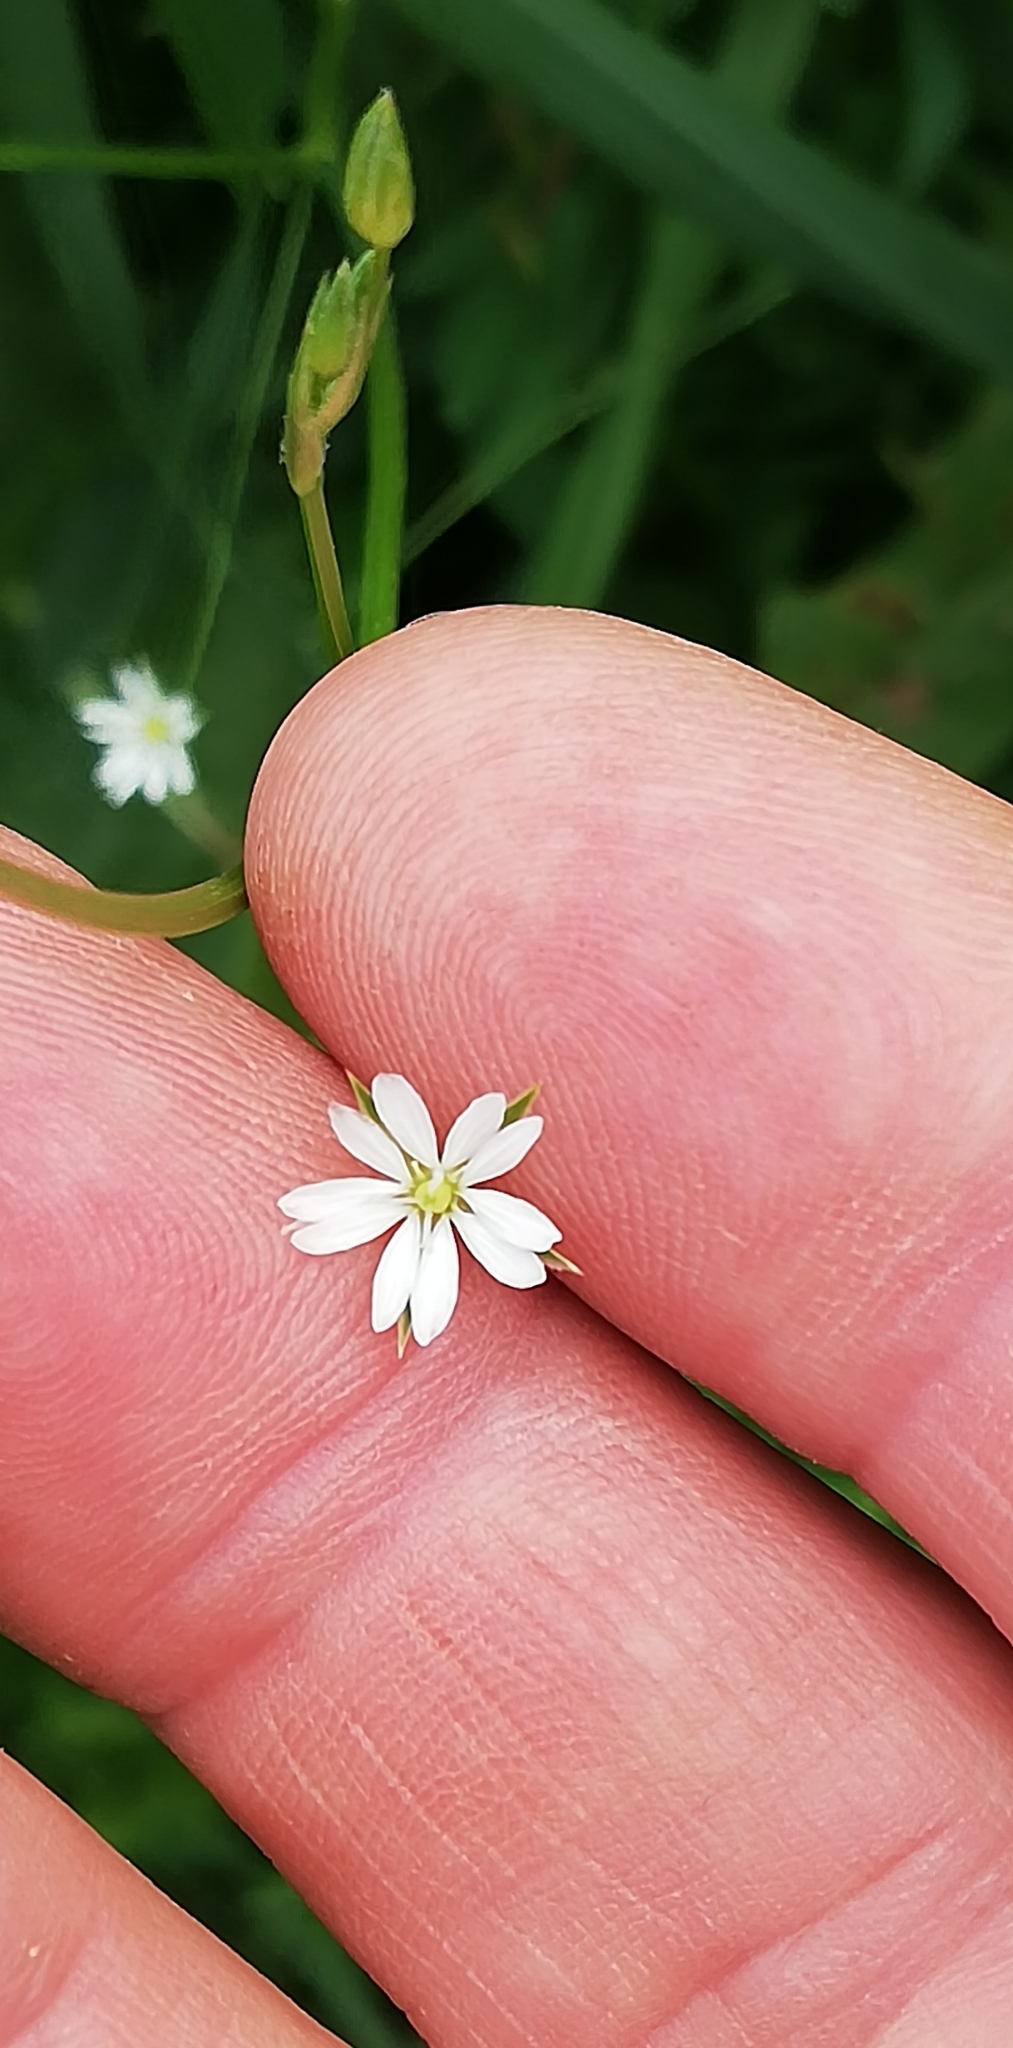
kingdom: Plantae
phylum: Tracheophyta
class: Magnoliopsida
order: Caryophyllales
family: Caryophyllaceae
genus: Stellaria
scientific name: Stellaria graminea
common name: Grass-like starwort
